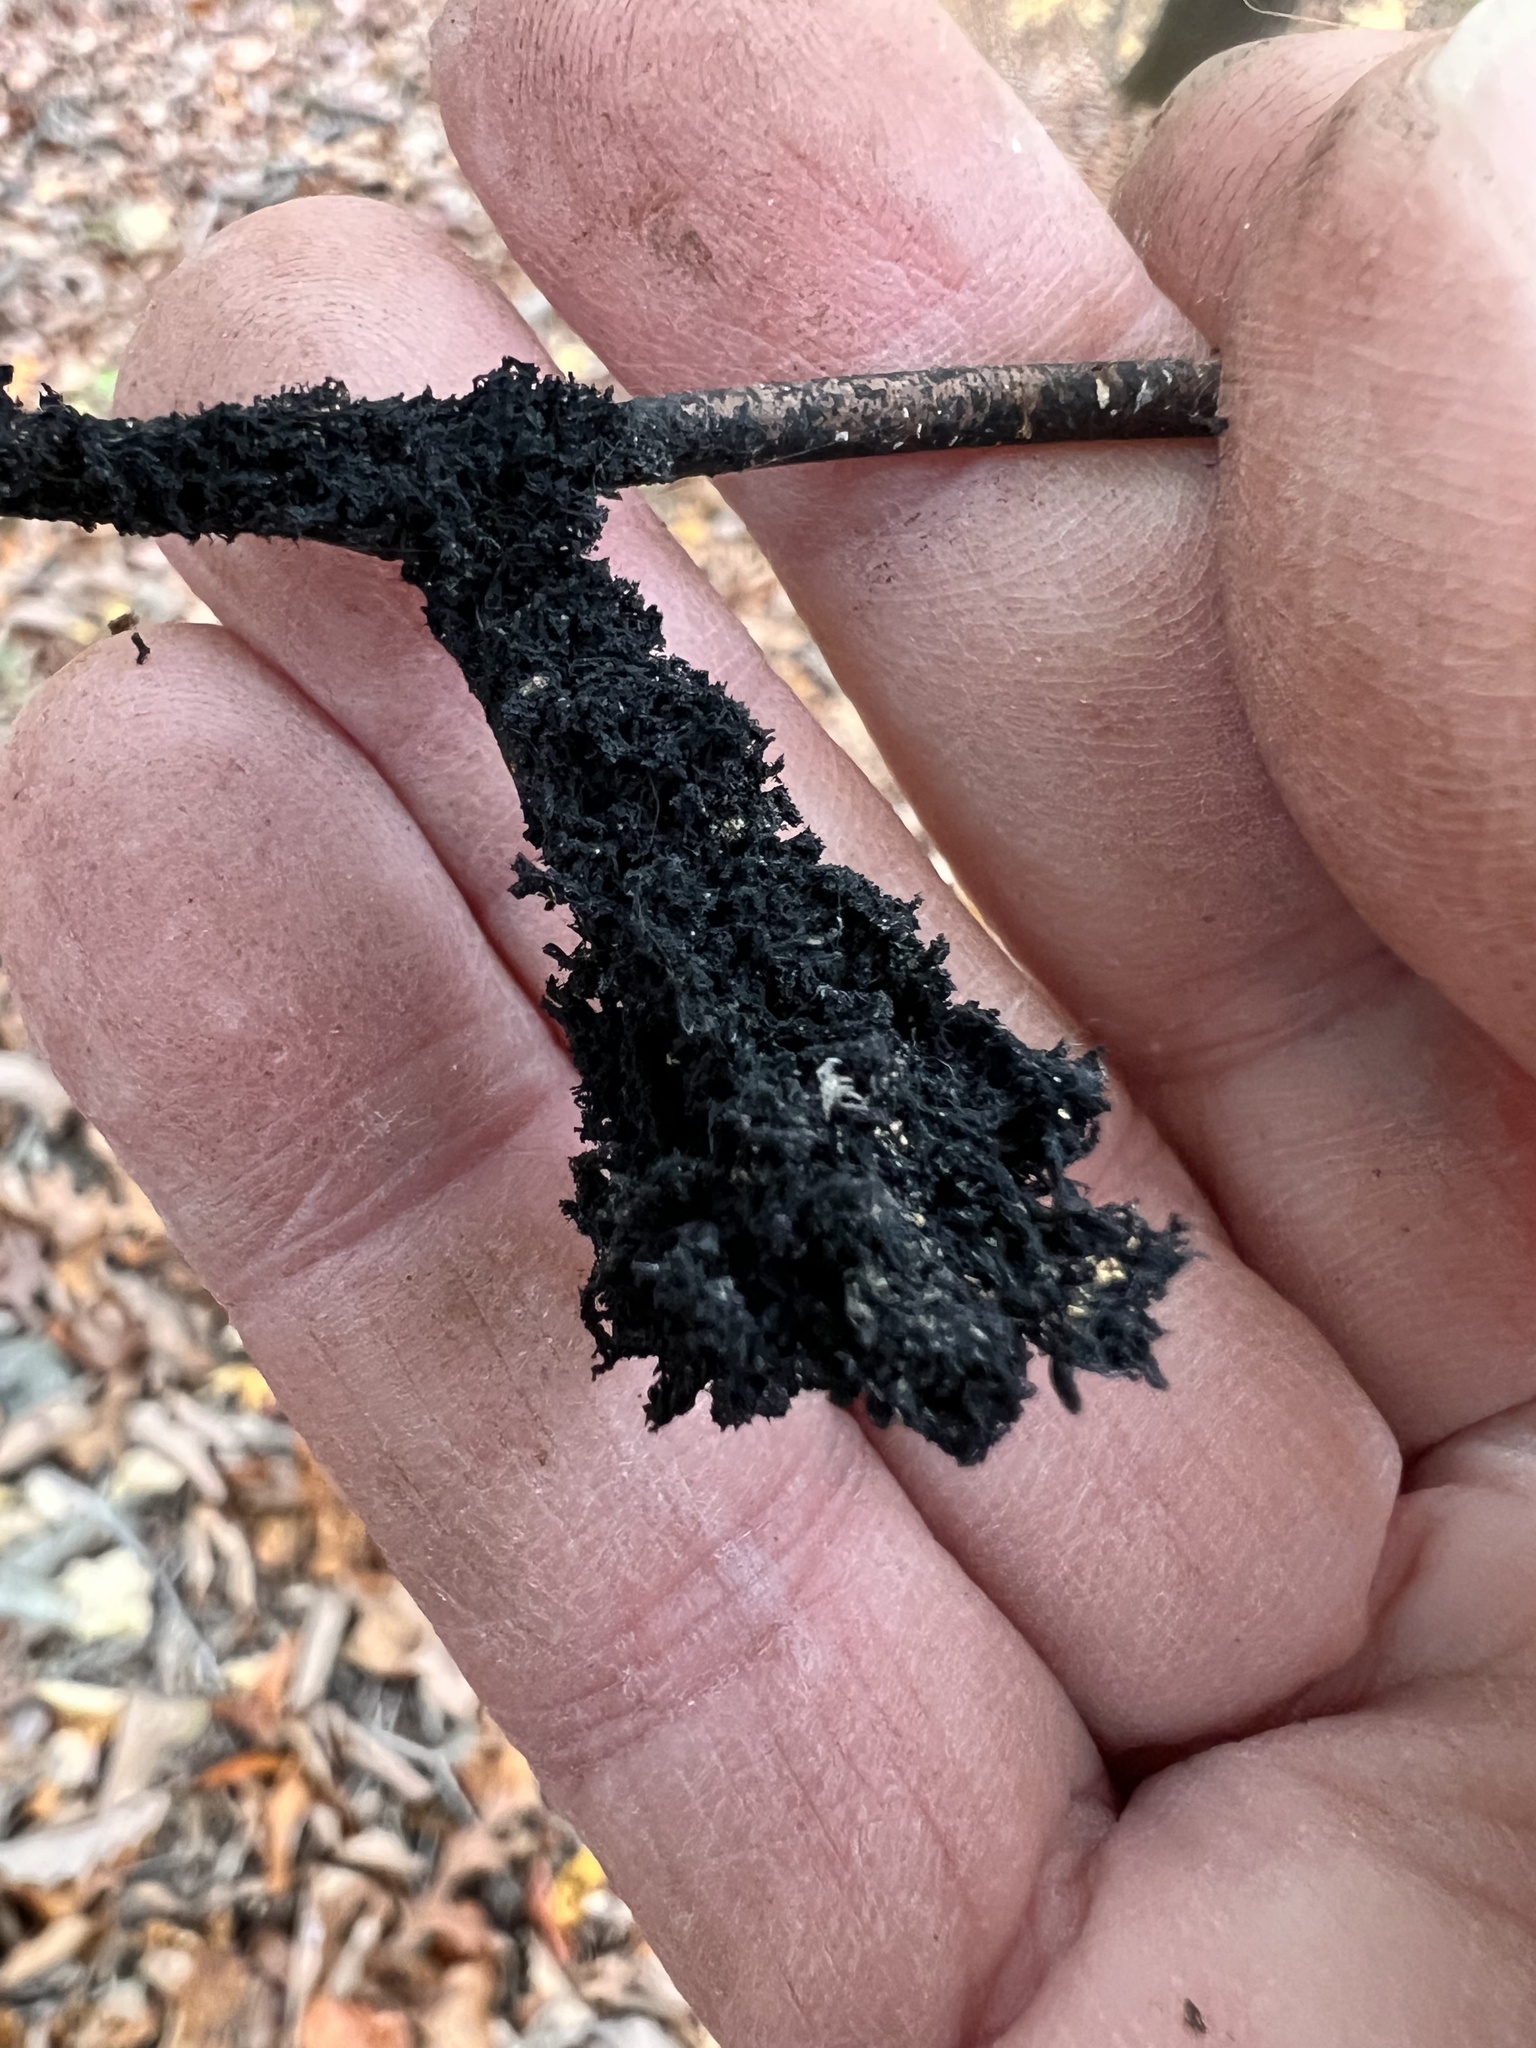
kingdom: Fungi
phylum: Ascomycota
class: Dothideomycetes
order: Capnodiales
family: Capnodiaceae
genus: Scorias
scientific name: Scorias spongiosa
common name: Black sooty mold
